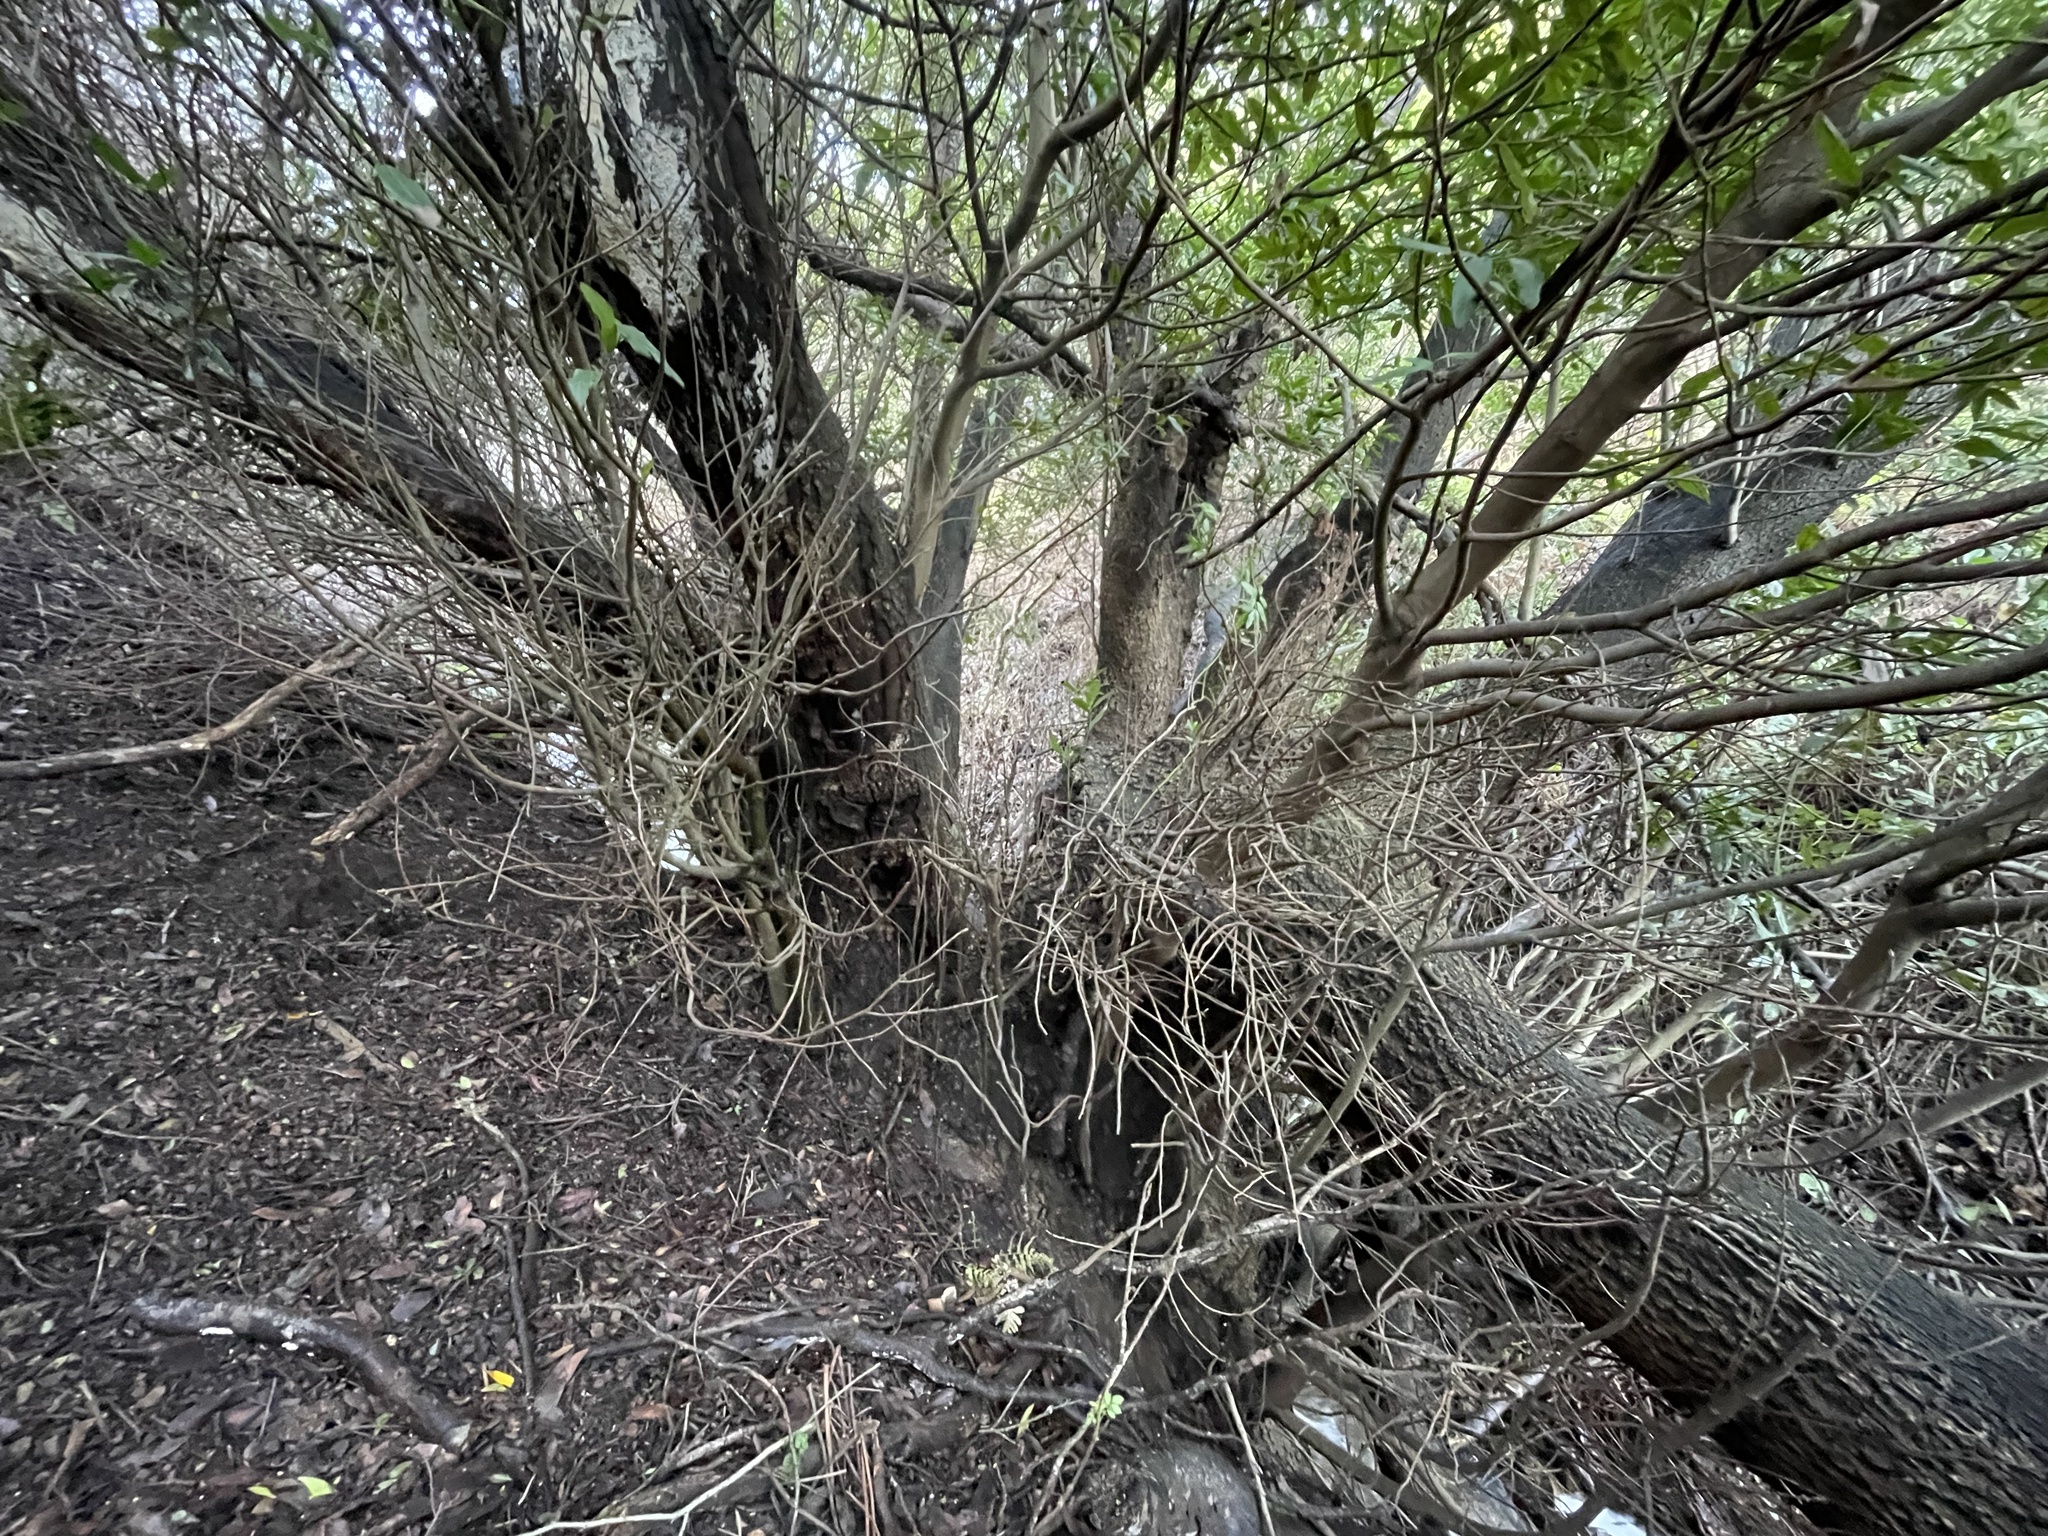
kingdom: Plantae
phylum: Tracheophyta
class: Magnoliopsida
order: Laurales
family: Lauraceae
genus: Umbellularia
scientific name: Umbellularia californica
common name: California bay
